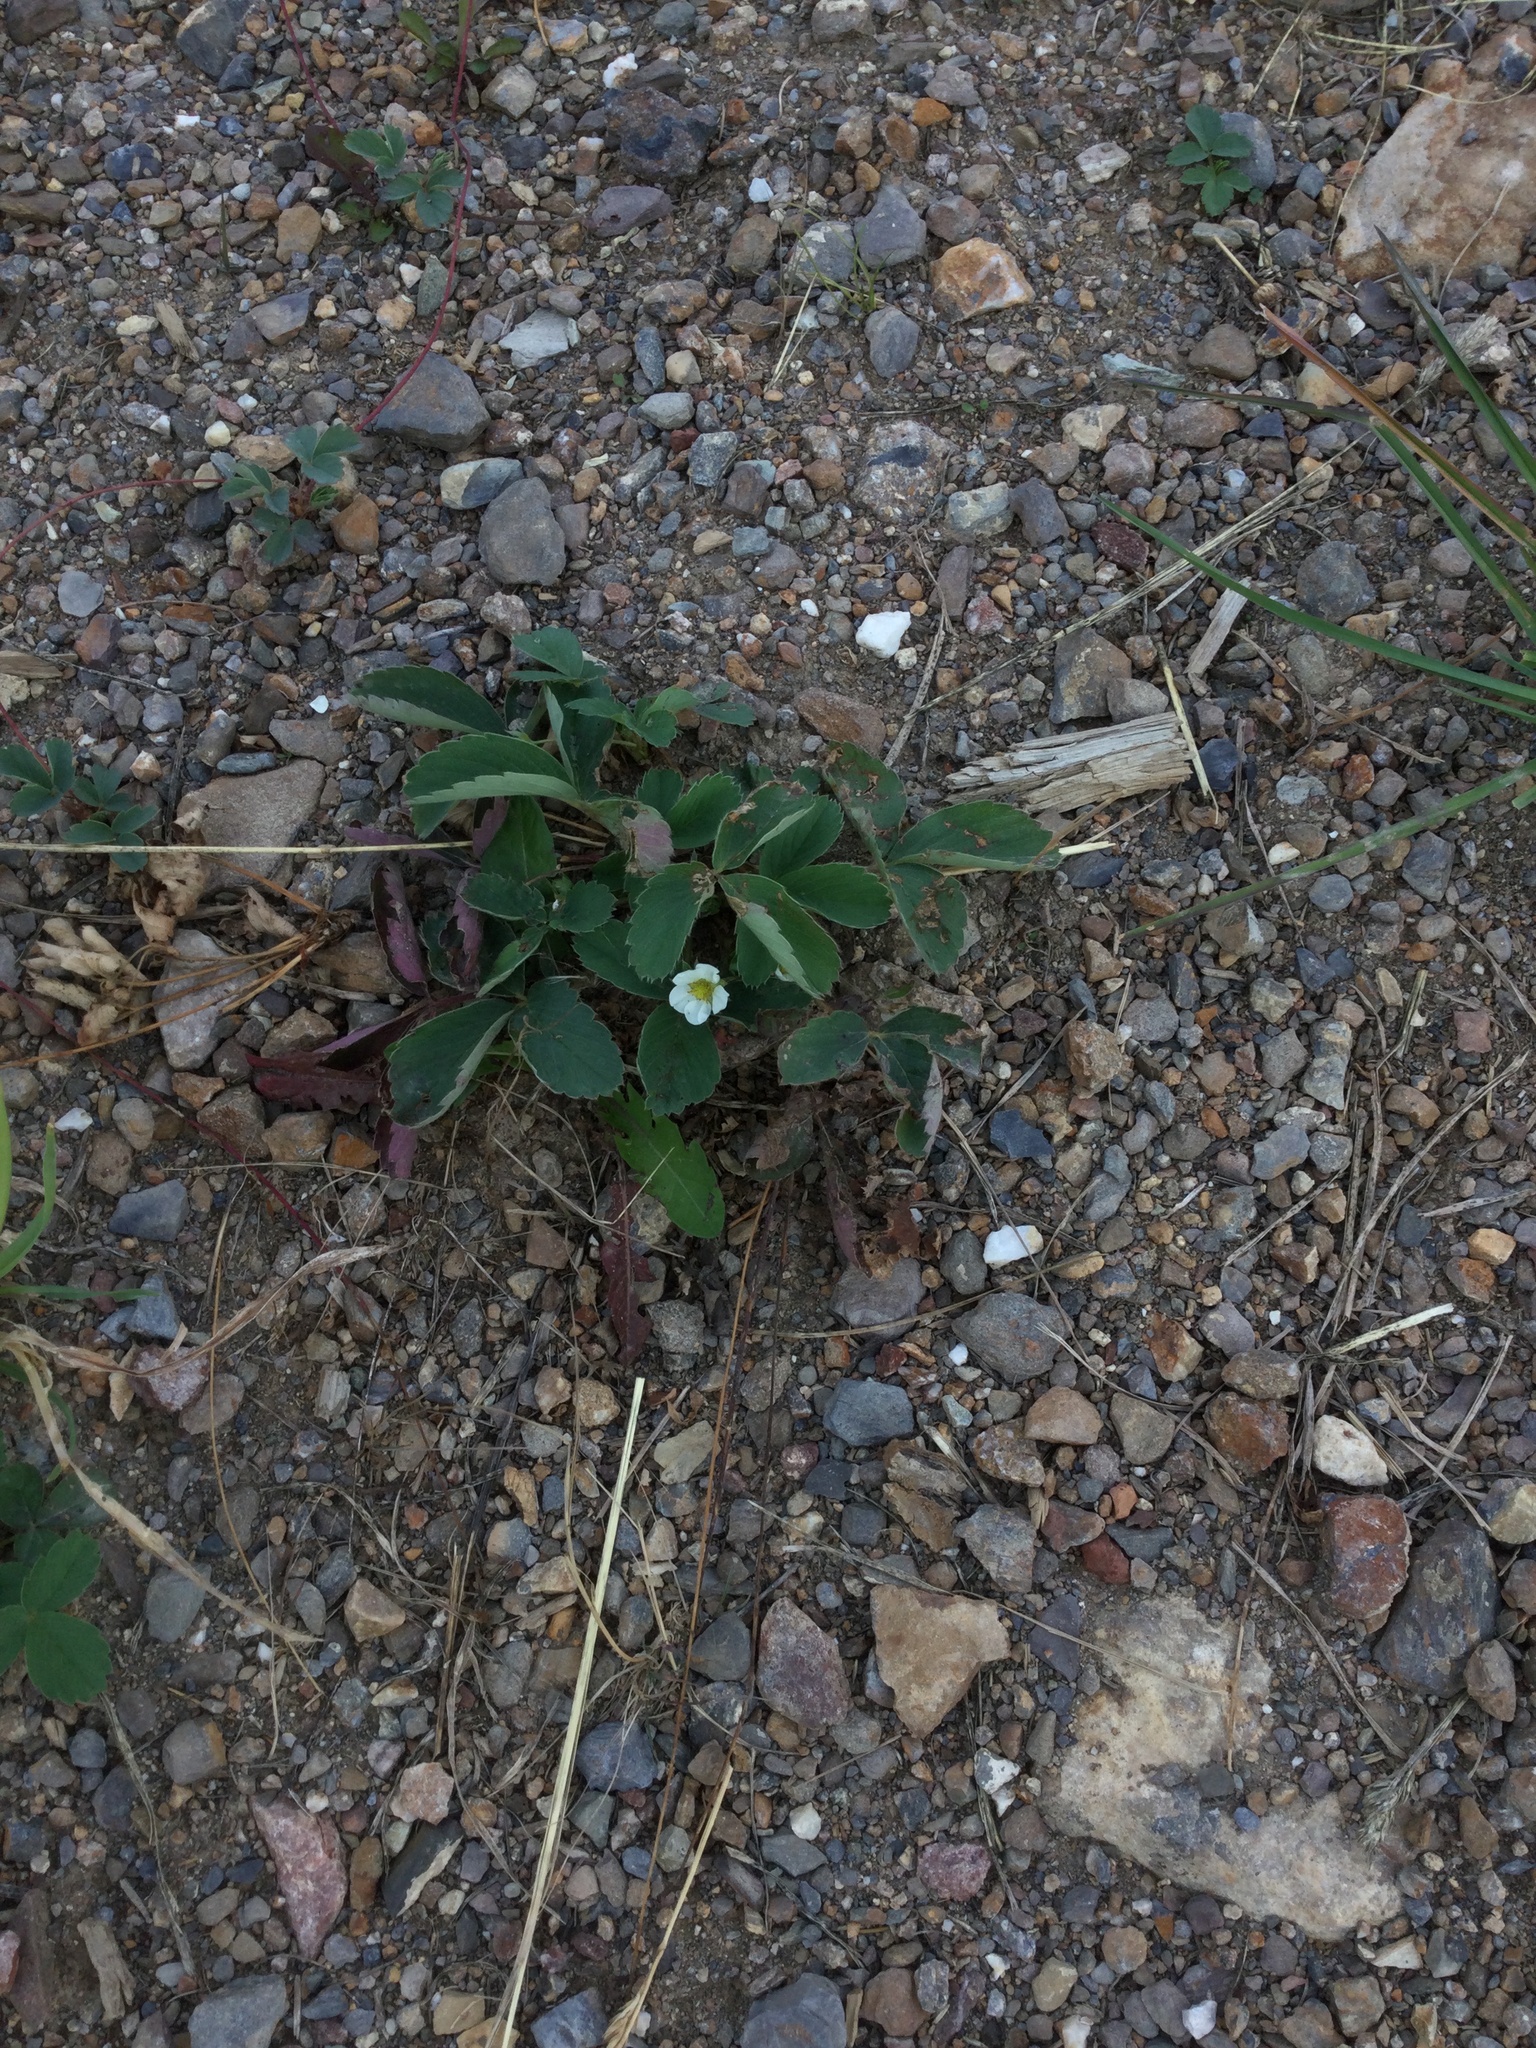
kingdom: Plantae
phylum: Tracheophyta
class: Magnoliopsida
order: Rosales
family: Rosaceae
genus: Fragaria
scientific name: Fragaria virginiana
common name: Thickleaved wild strawberry
